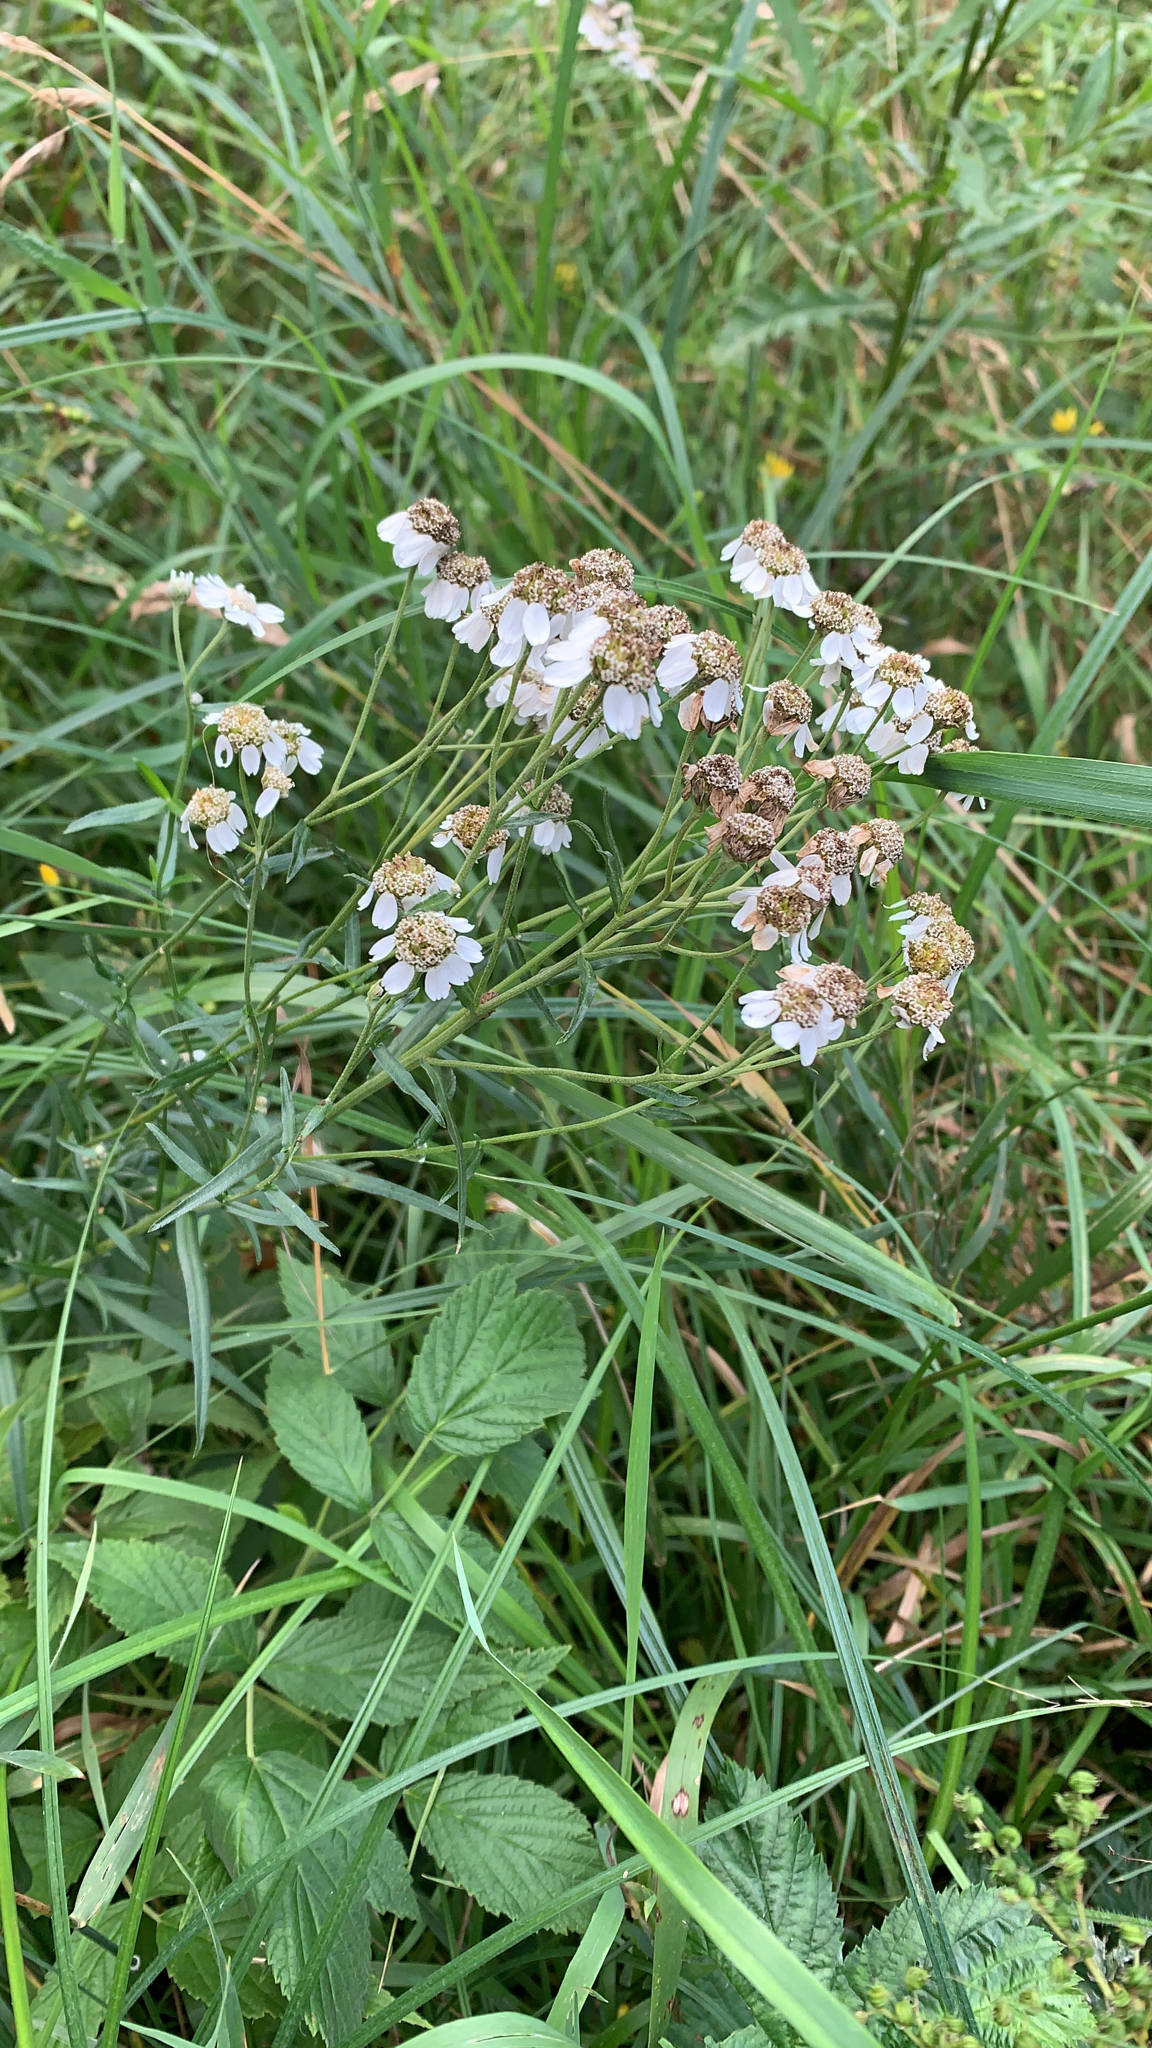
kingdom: Plantae
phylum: Tracheophyta
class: Magnoliopsida
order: Asterales
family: Asteraceae
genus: Achillea
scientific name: Achillea ptarmica
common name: Sneezeweed
